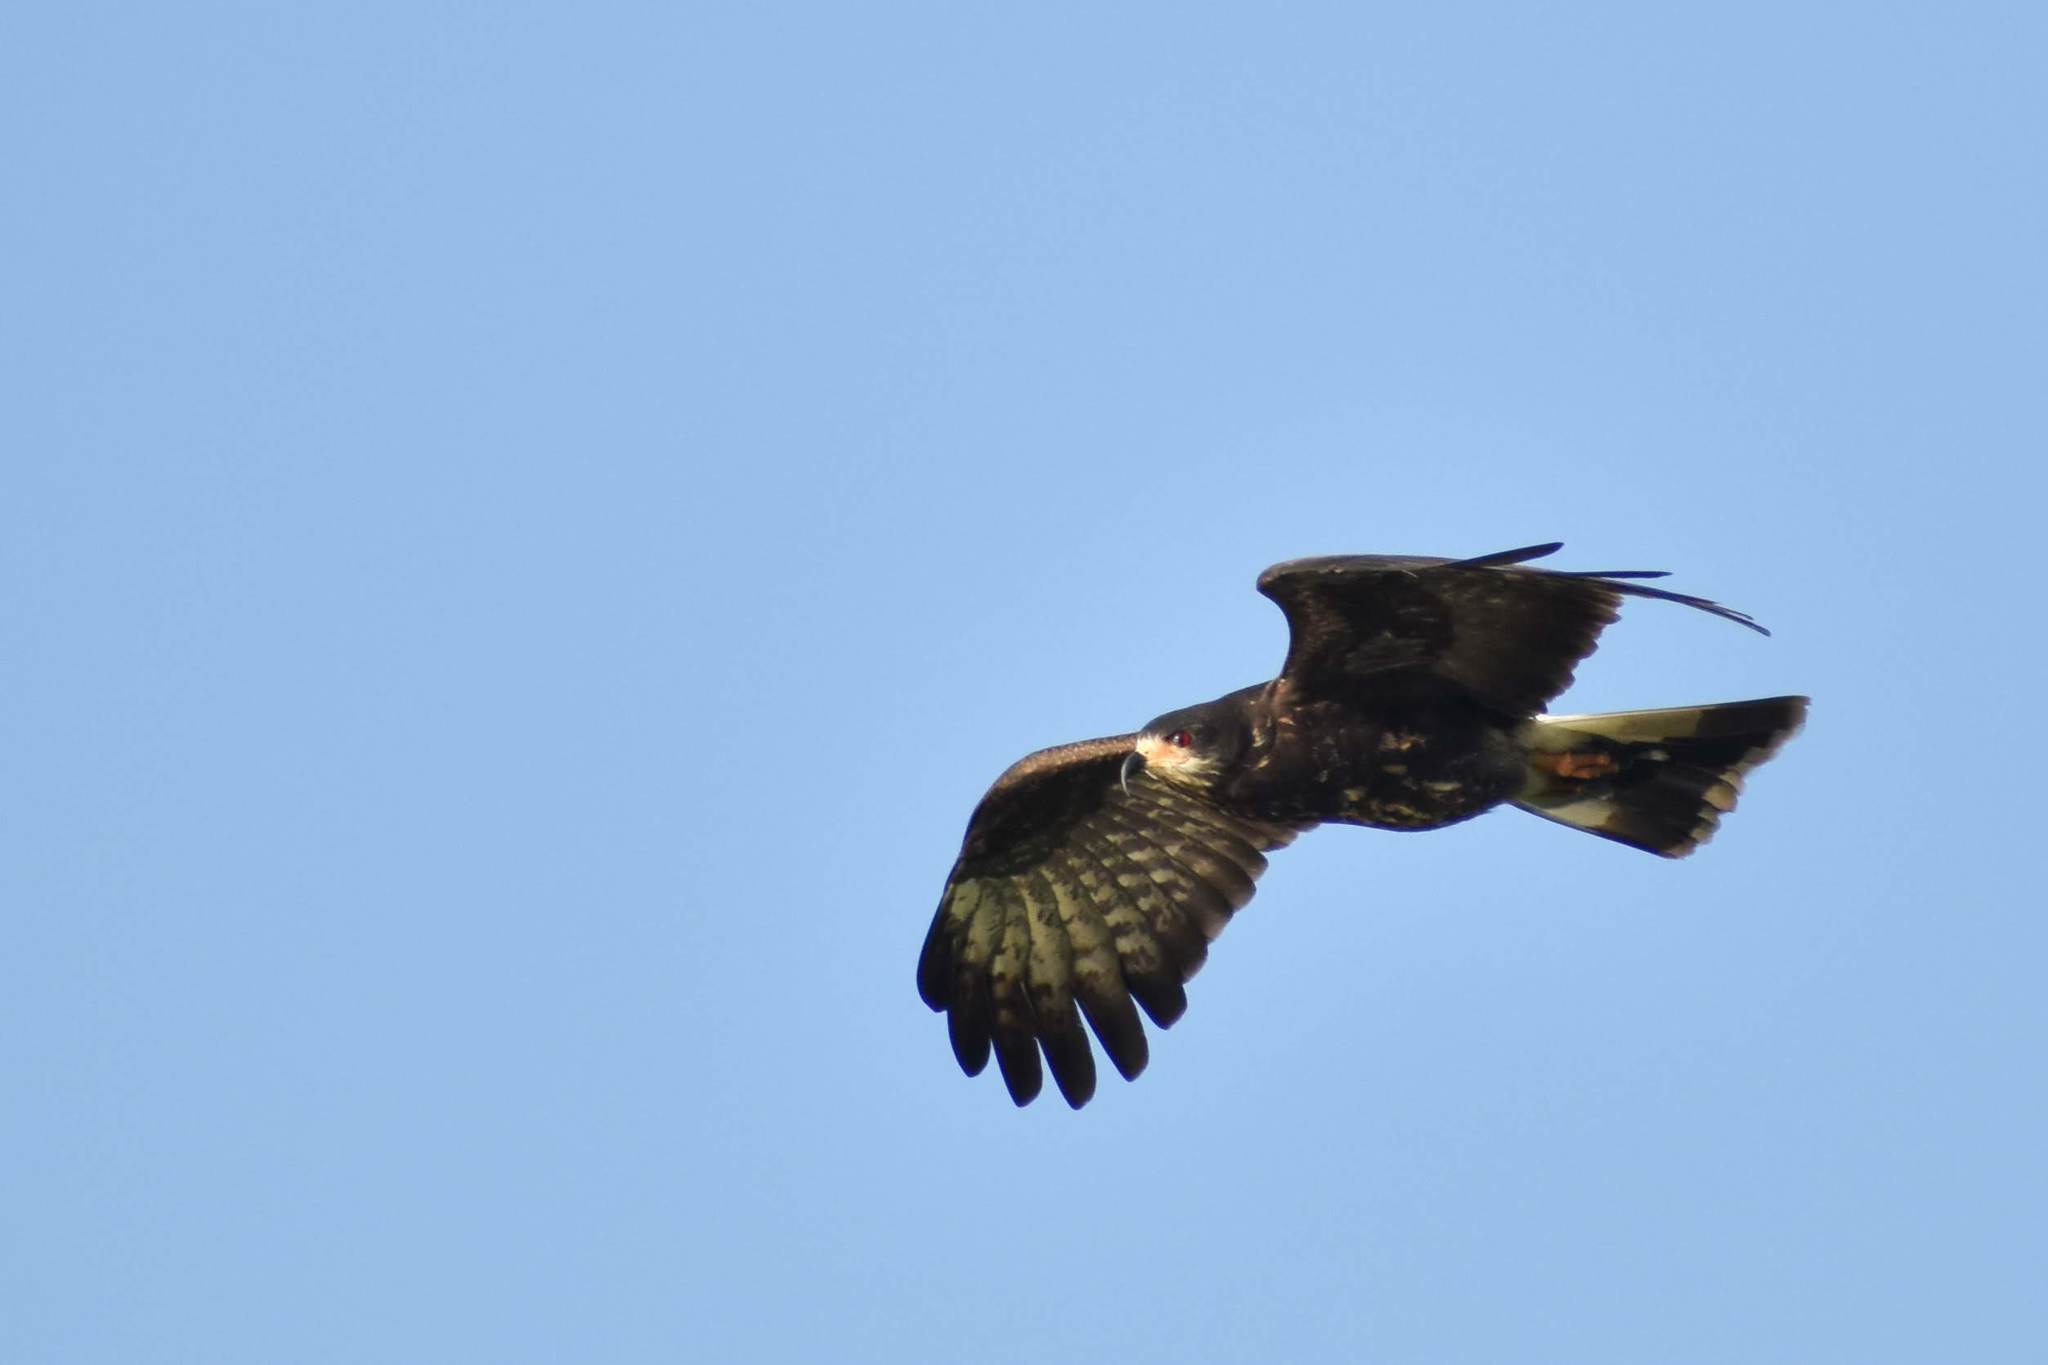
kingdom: Animalia
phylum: Chordata
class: Aves
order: Accipitriformes
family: Accipitridae
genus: Rostrhamus
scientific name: Rostrhamus sociabilis
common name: Snail kite
